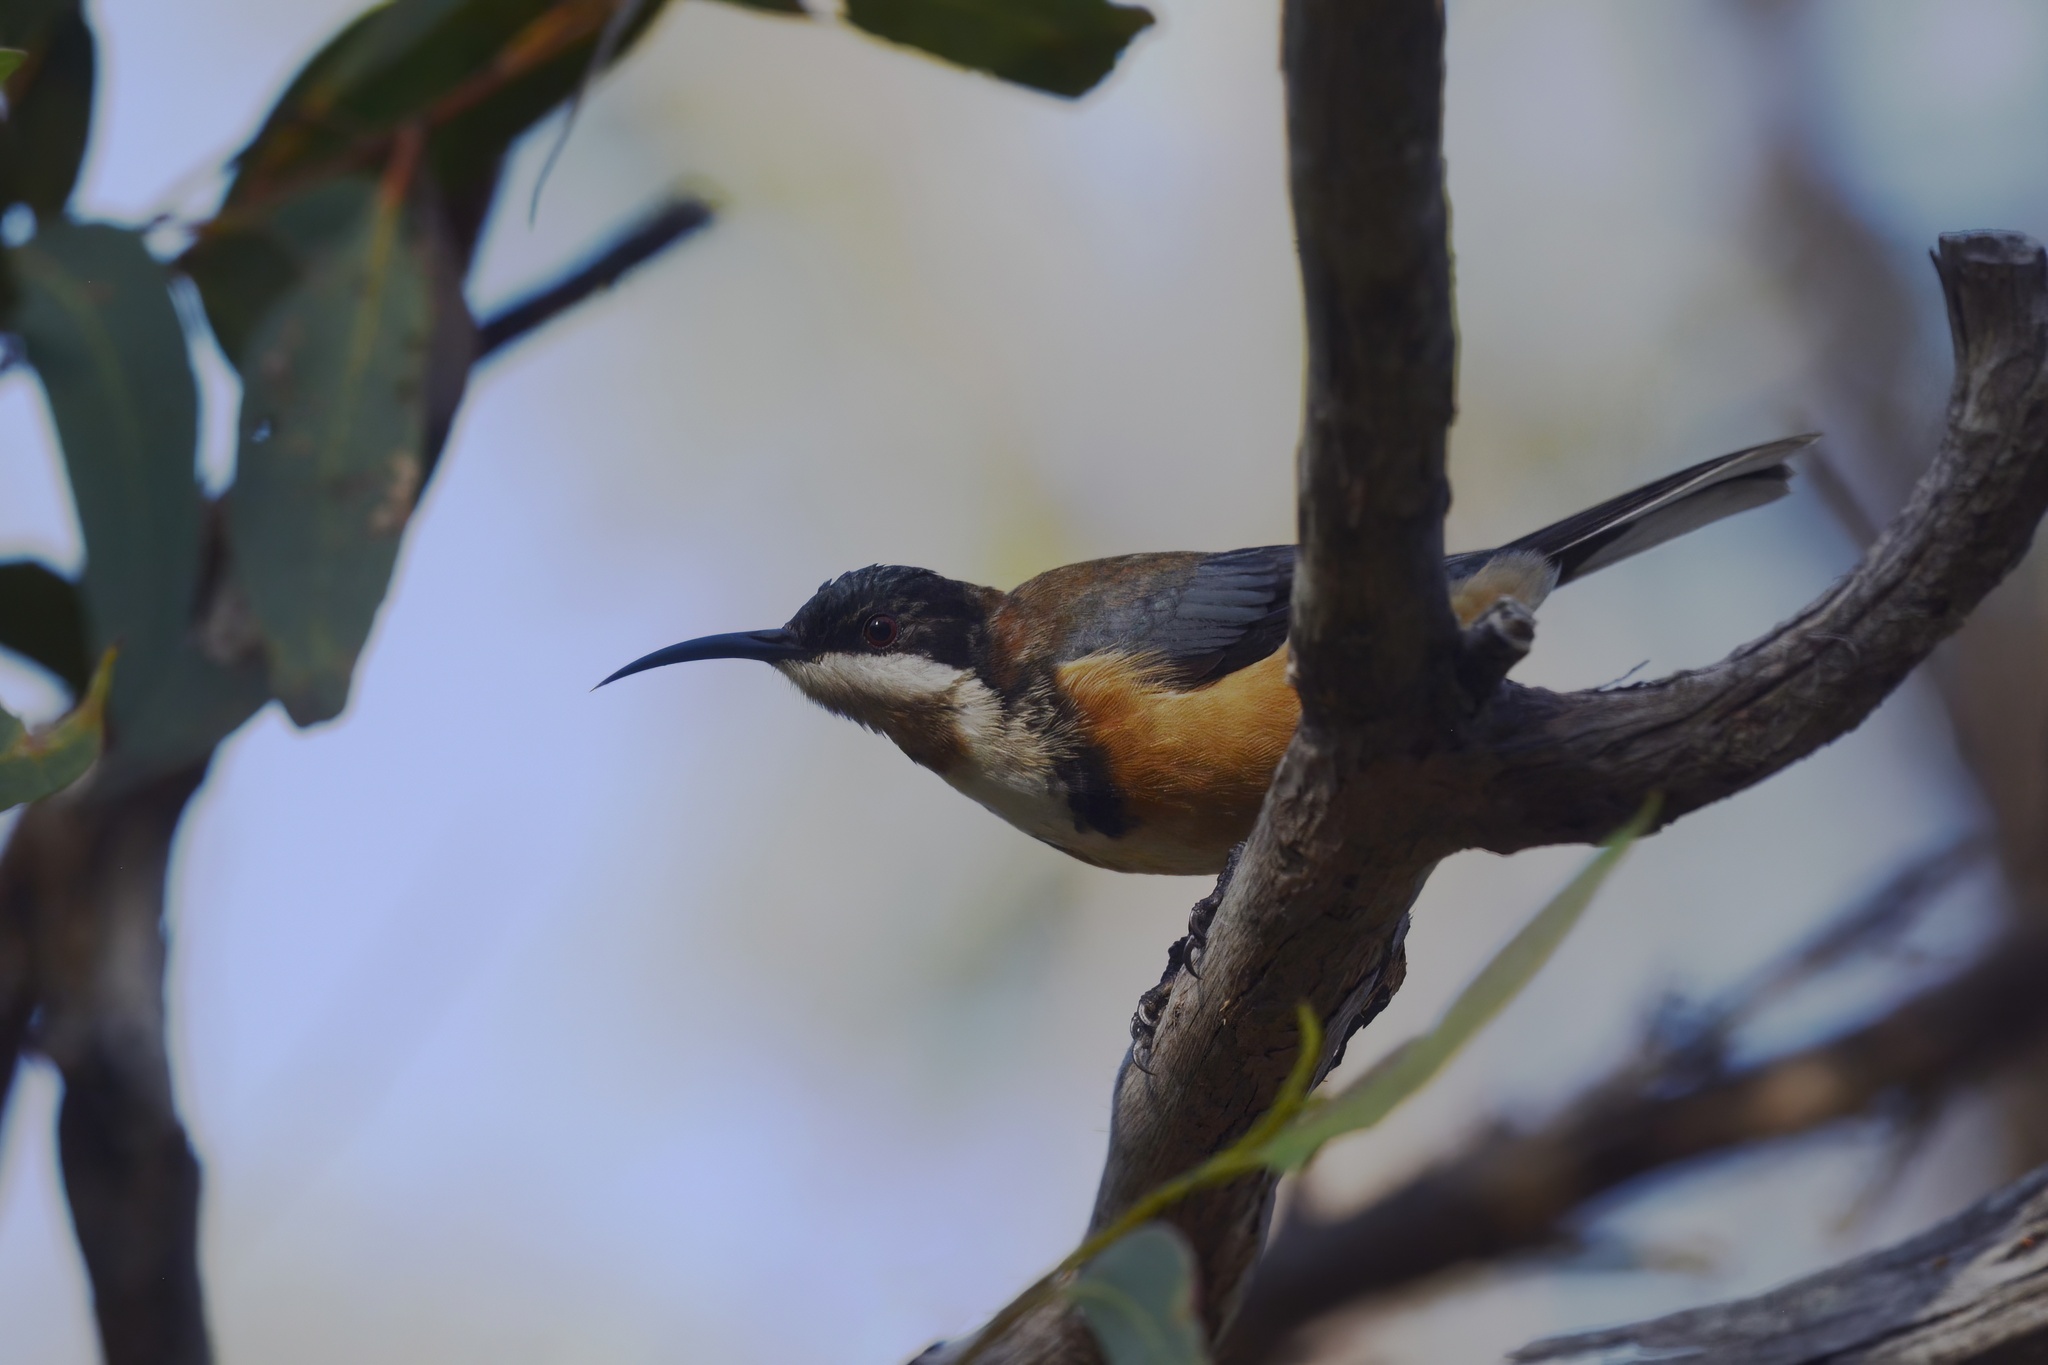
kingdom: Animalia
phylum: Chordata
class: Aves
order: Passeriformes
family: Meliphagidae
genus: Acanthorhynchus
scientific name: Acanthorhynchus tenuirostris
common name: Eastern spinebill
